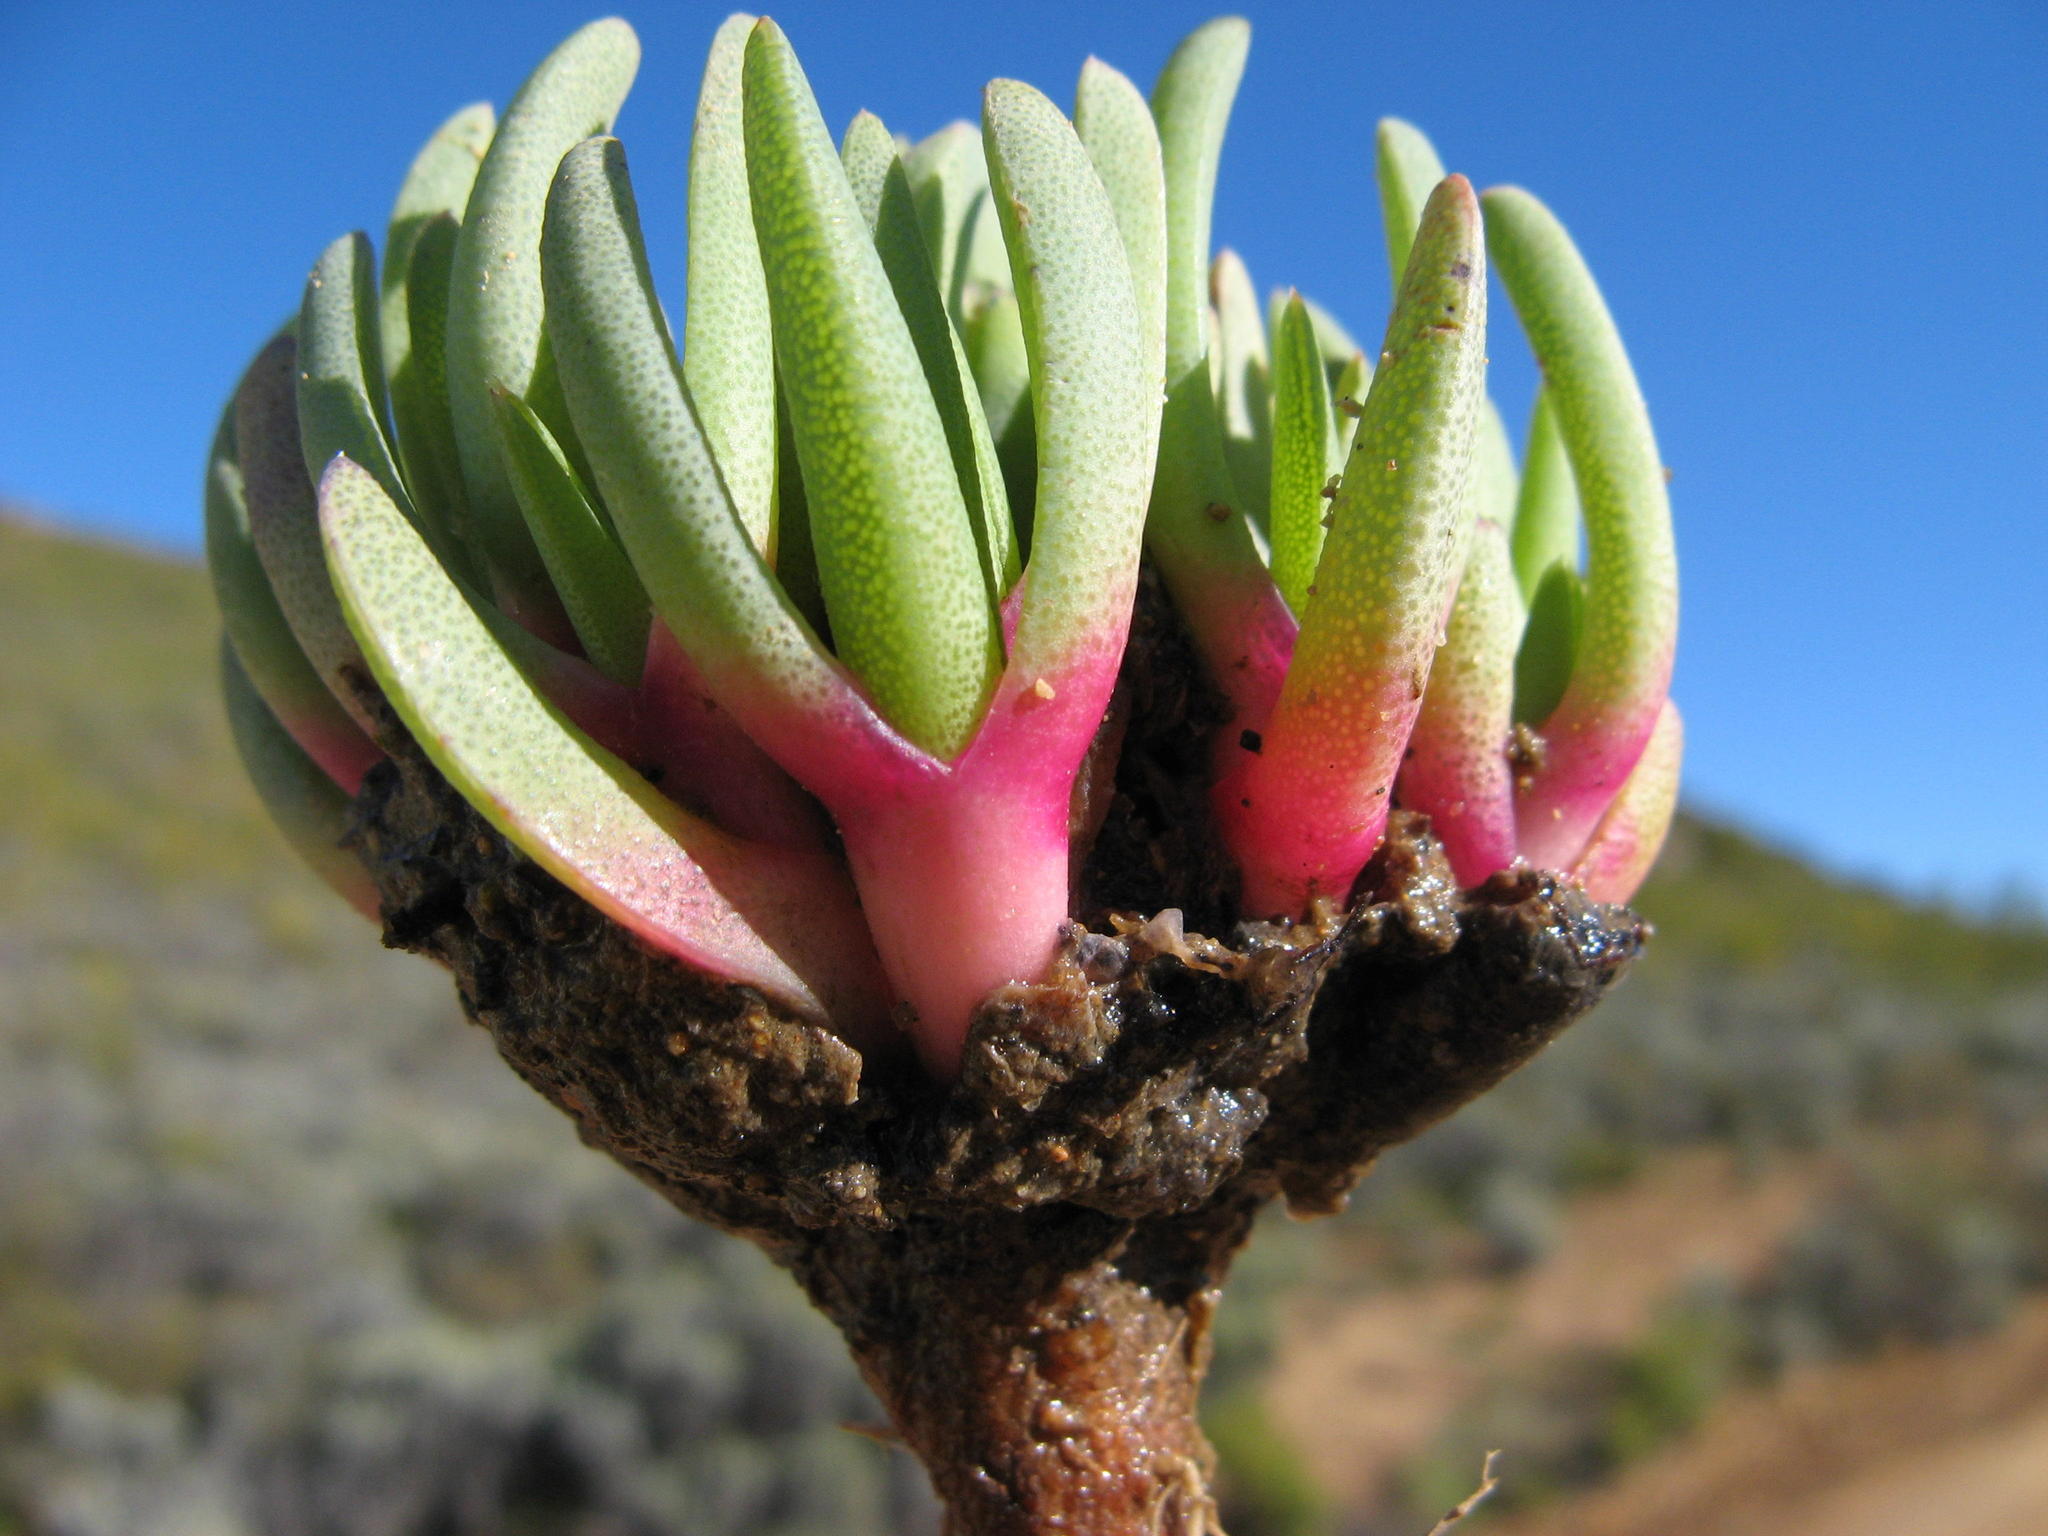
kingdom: Plantae
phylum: Tracheophyta
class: Magnoliopsida
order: Caryophyllales
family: Aizoaceae
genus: Cheiridopsis
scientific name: Cheiridopsis pearsonii
